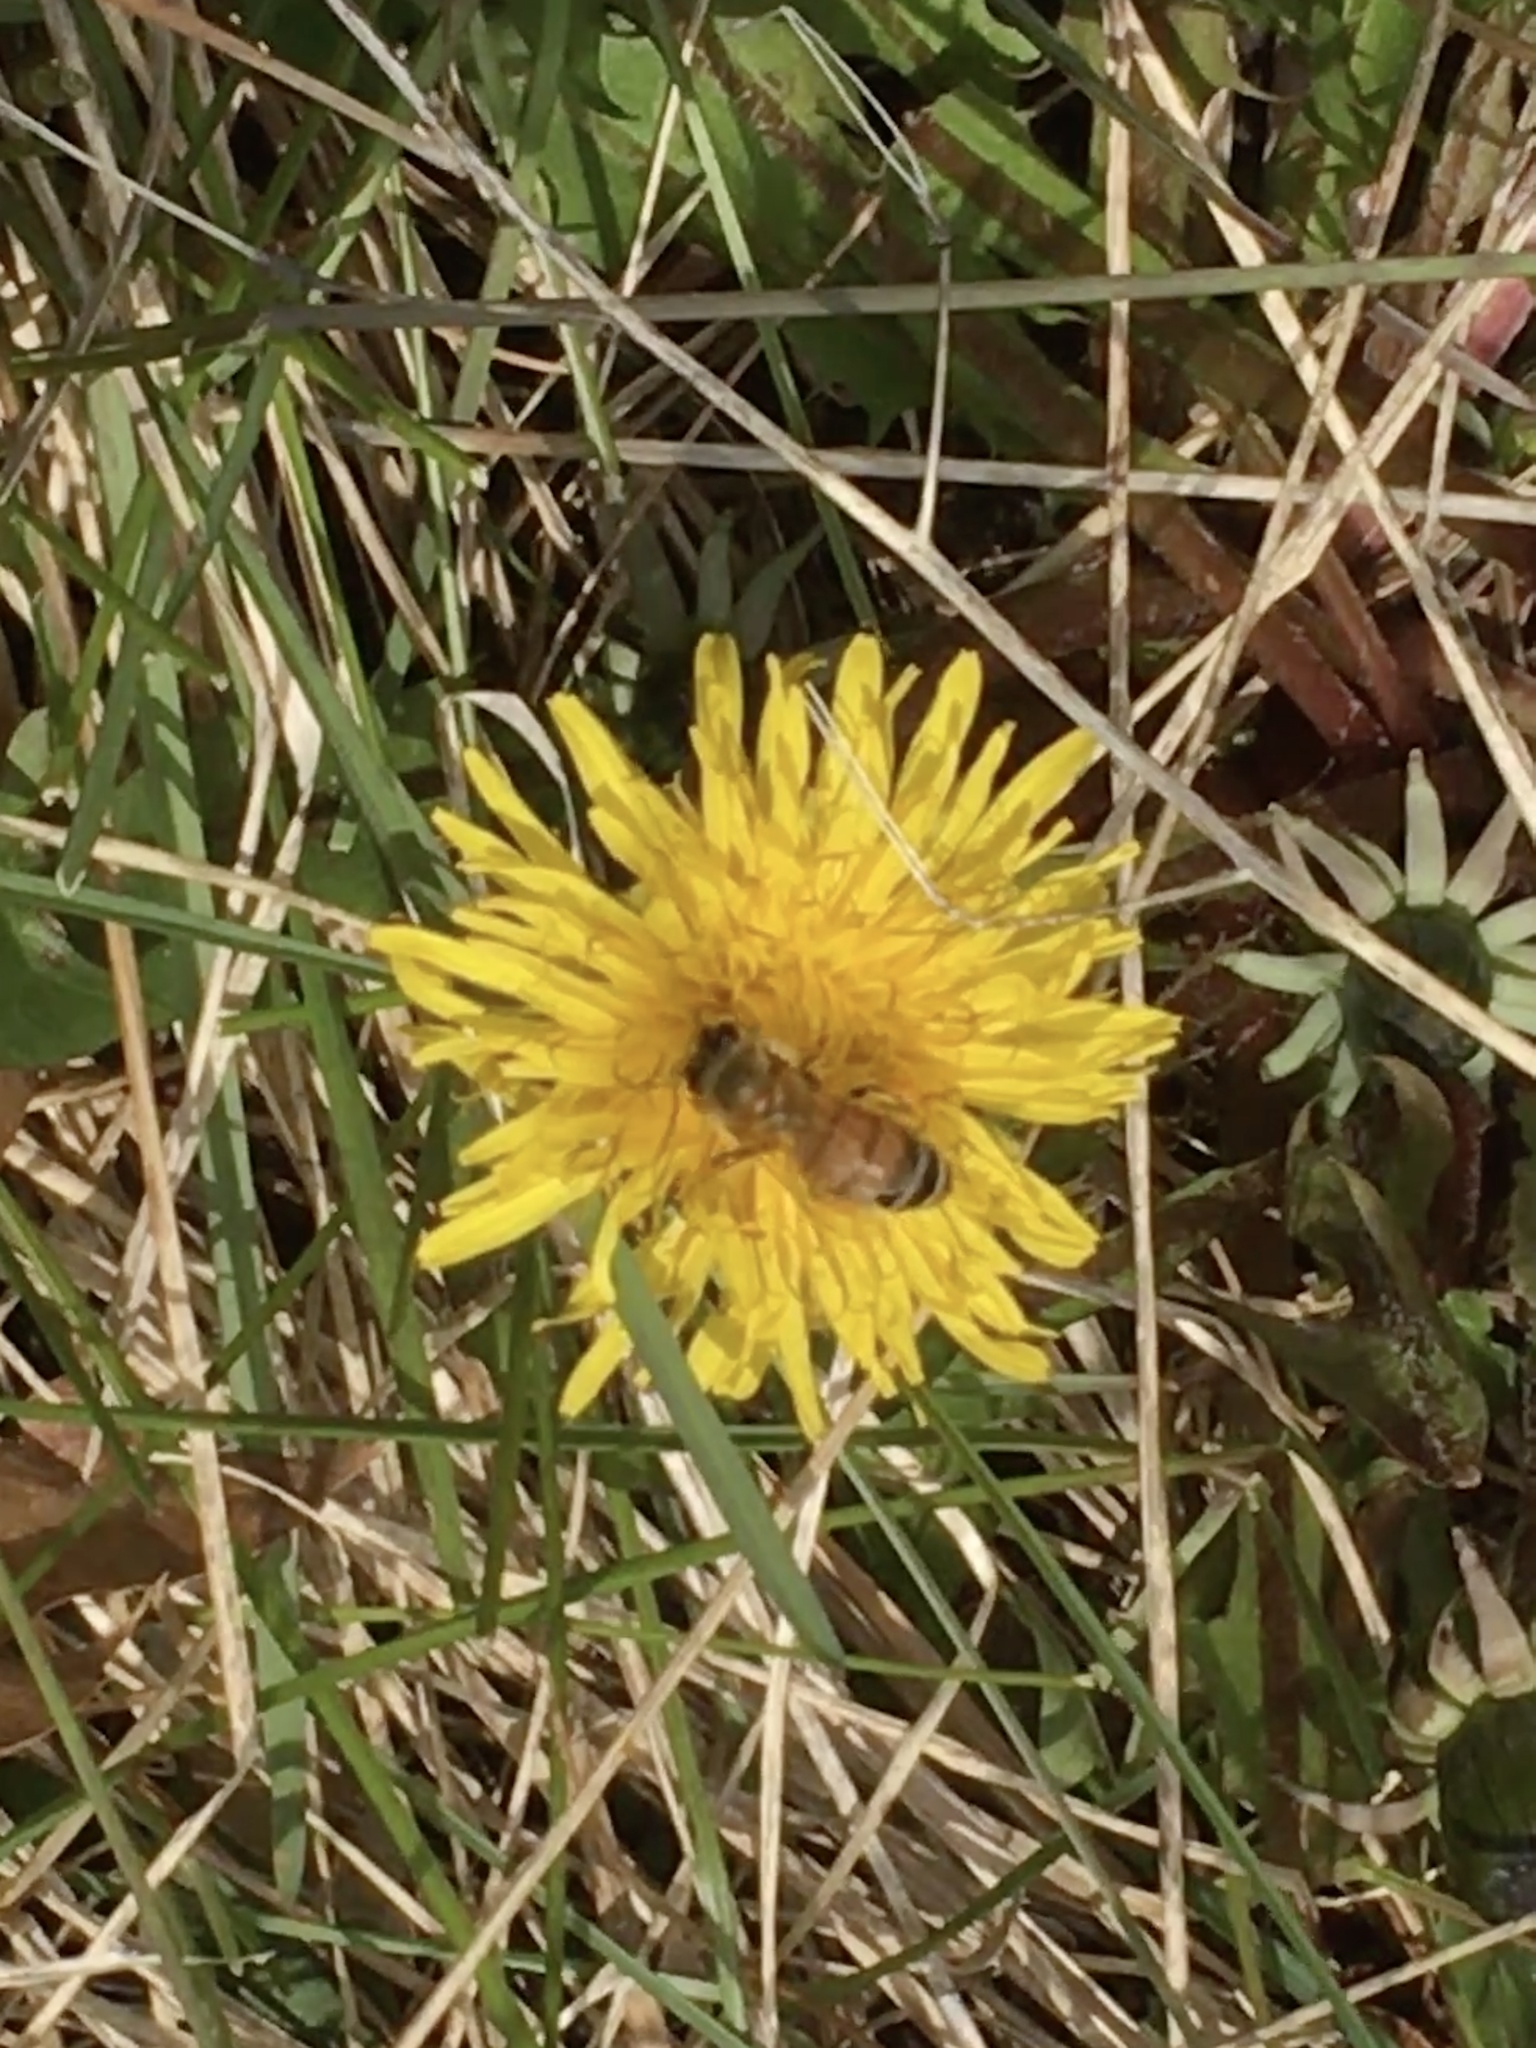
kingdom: Animalia
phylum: Arthropoda
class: Insecta
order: Hymenoptera
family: Apidae
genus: Apis
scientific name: Apis mellifera
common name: Honey bee
